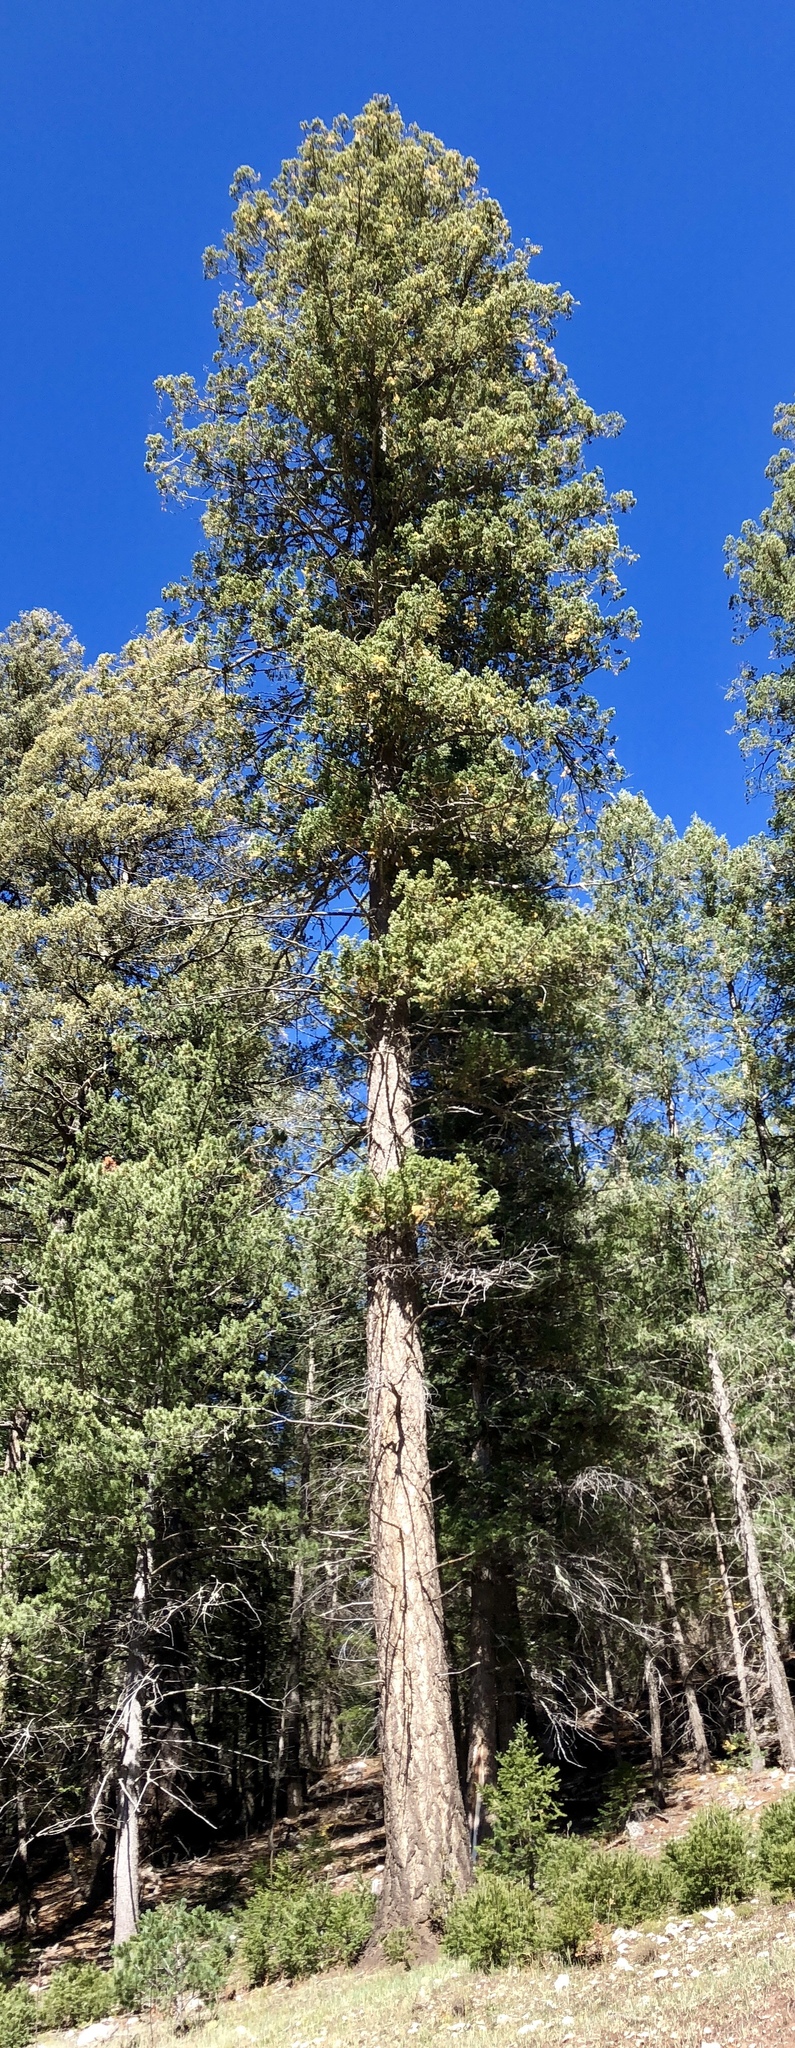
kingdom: Plantae
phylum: Tracheophyta
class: Pinopsida
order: Pinales
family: Pinaceae
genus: Pseudotsuga
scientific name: Pseudotsuga menziesii
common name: Douglas fir
